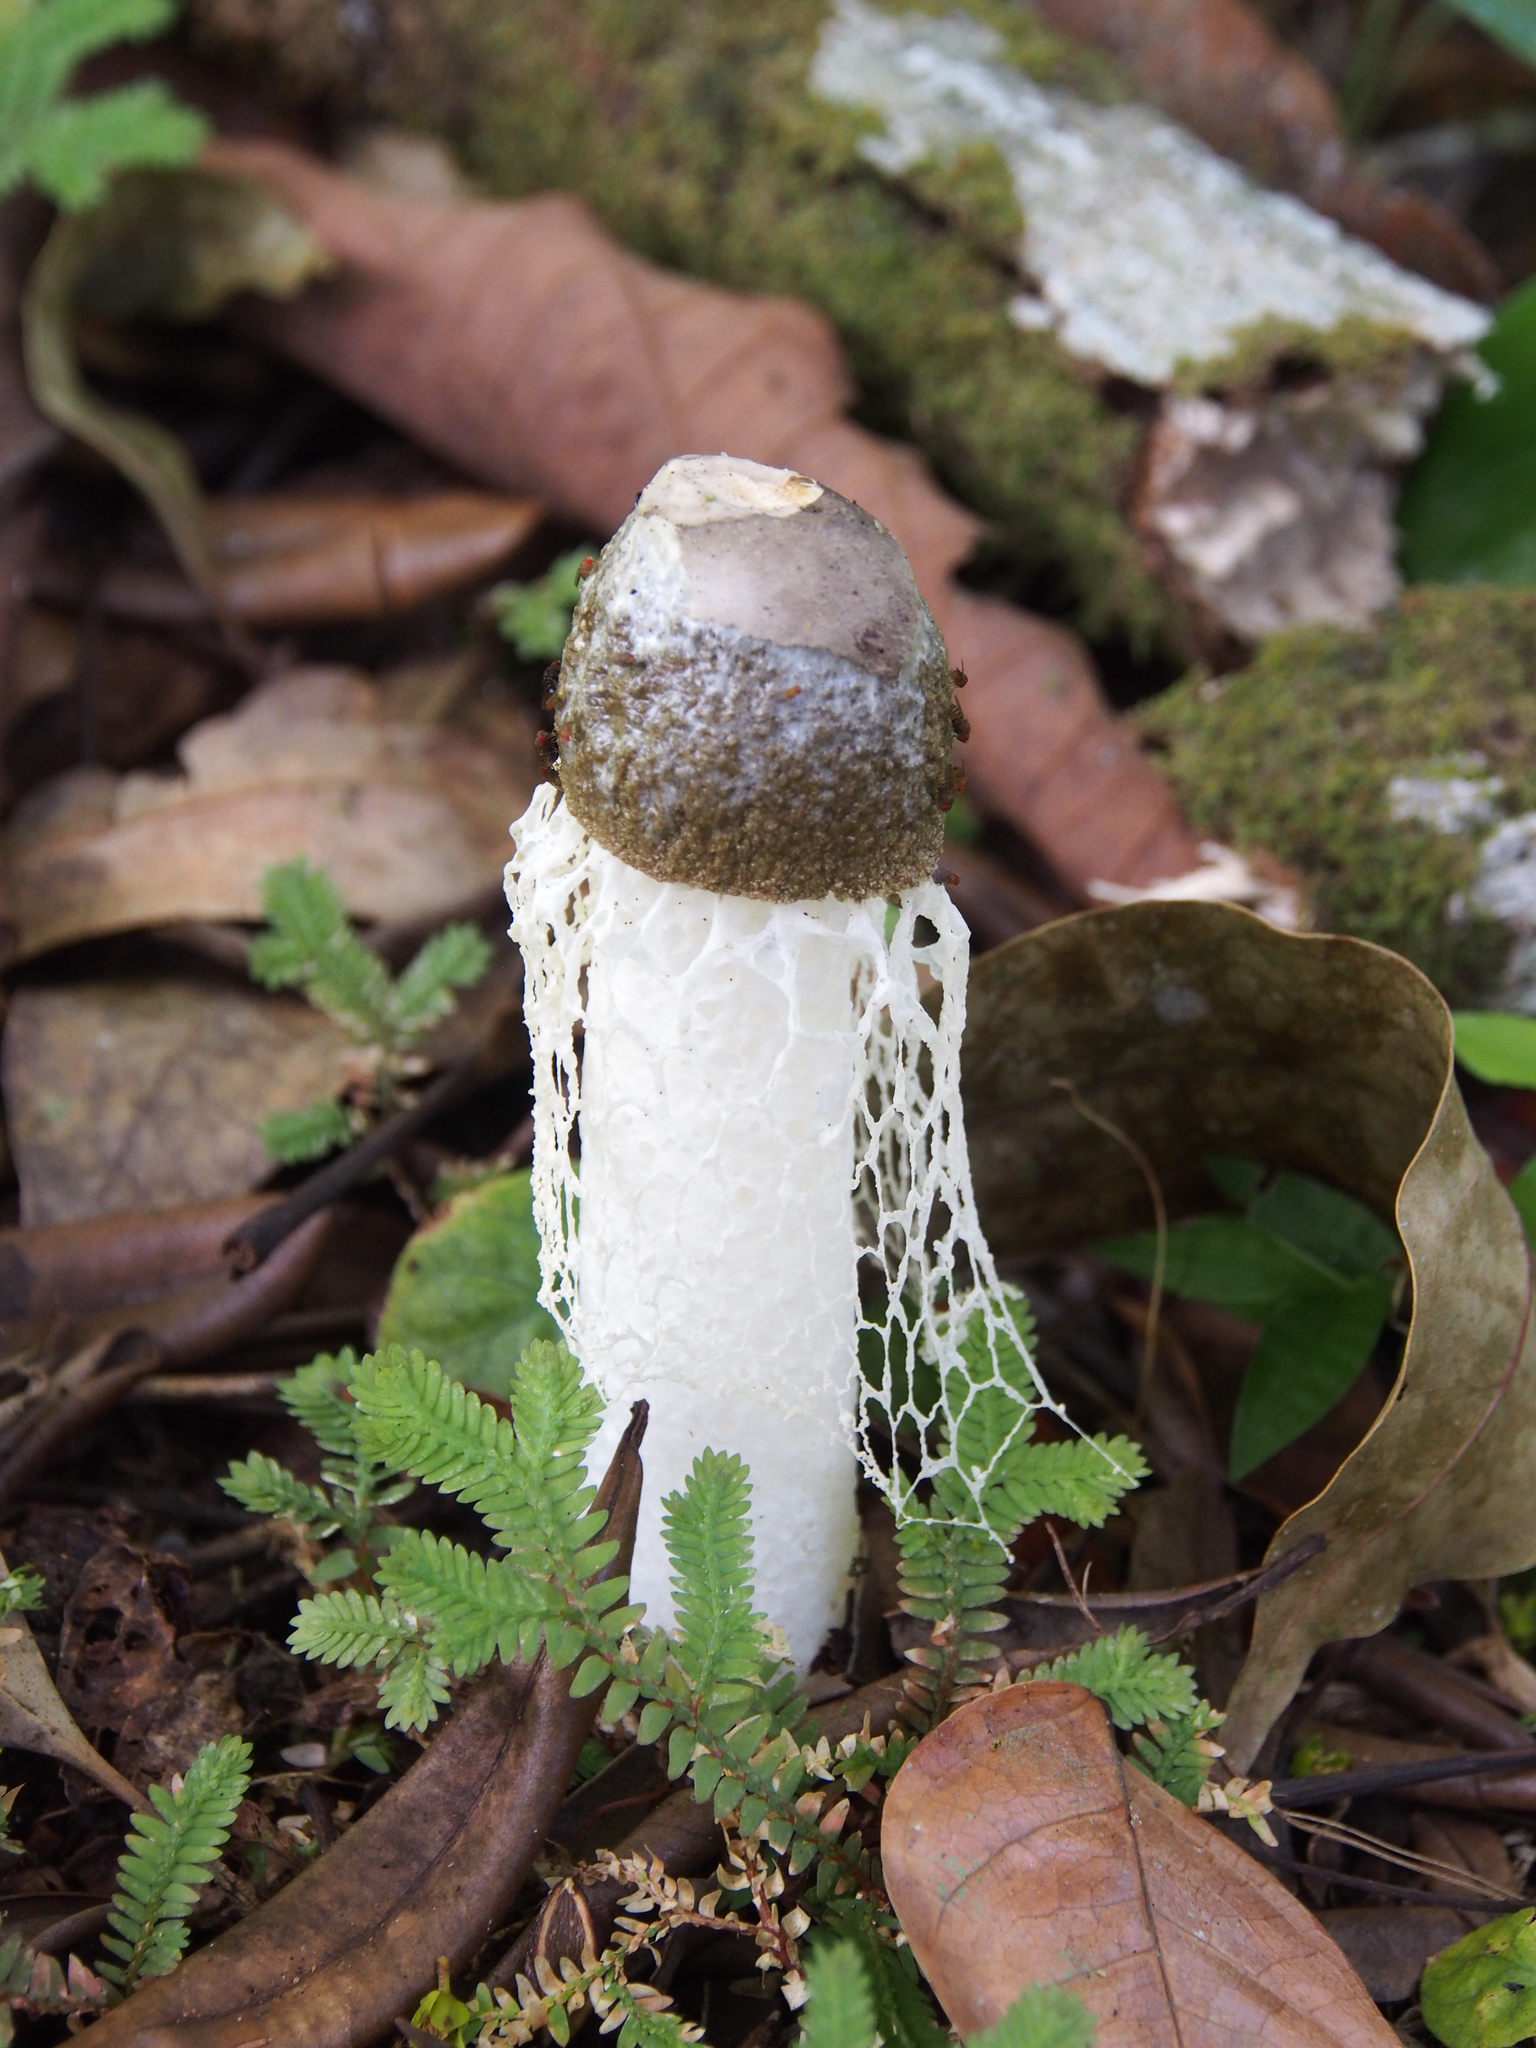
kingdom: Fungi
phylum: Basidiomycota
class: Agaricomycetes
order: Phallales
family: Phallaceae
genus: Phallus
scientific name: Phallus atrovolvatus
